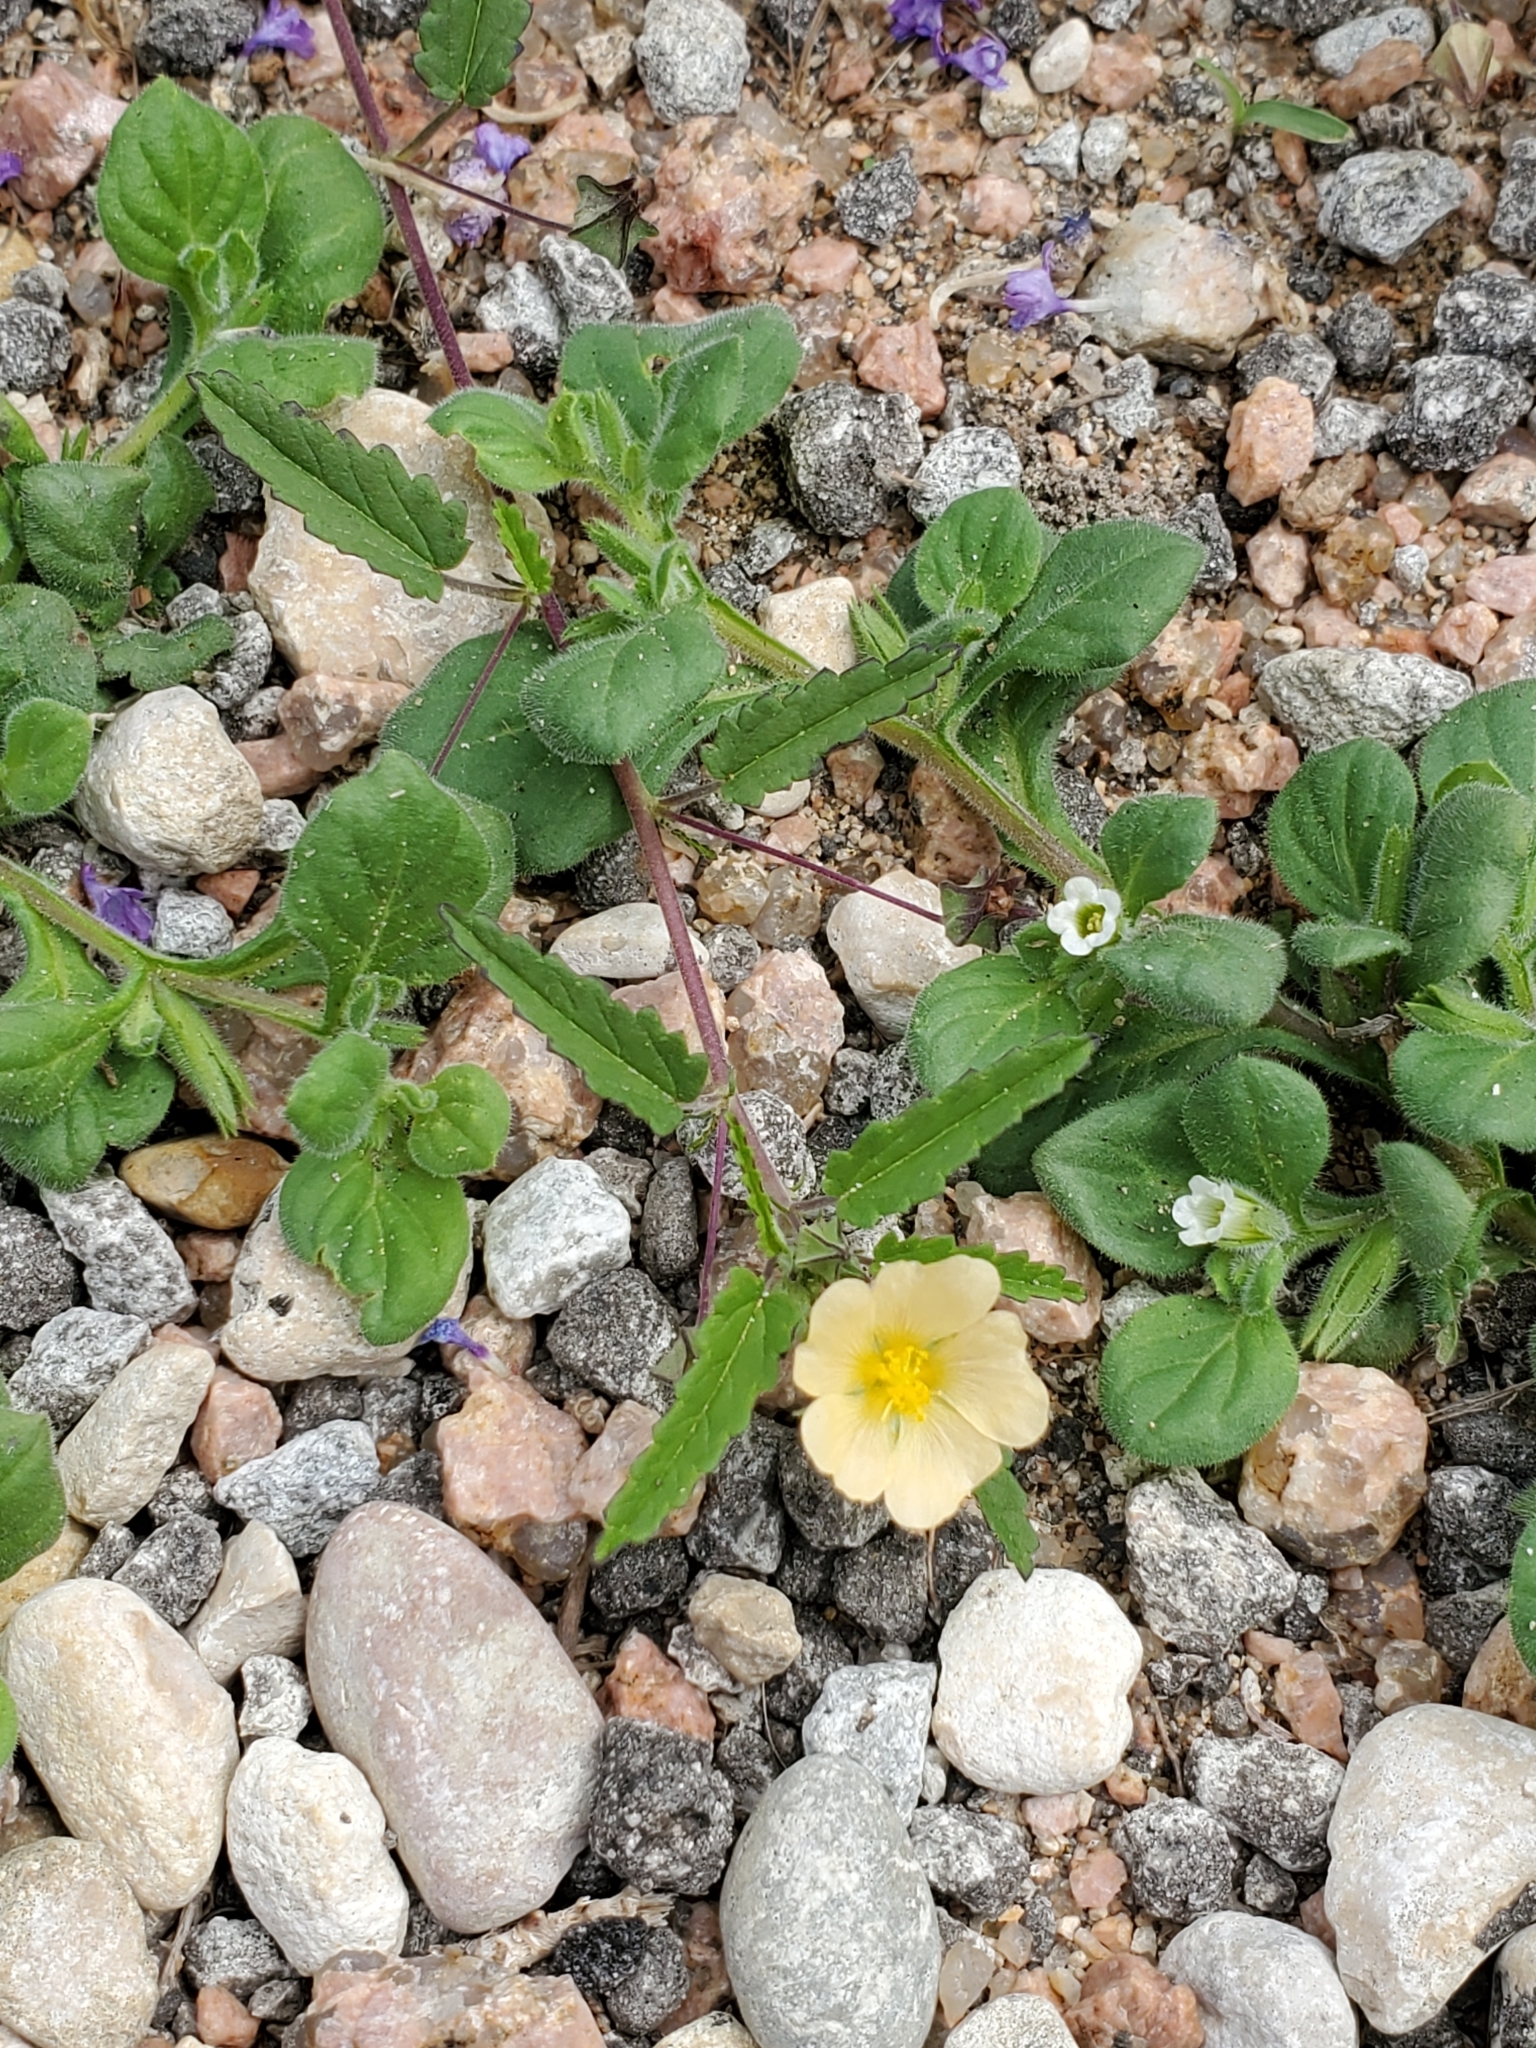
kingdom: Plantae
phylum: Tracheophyta
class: Magnoliopsida
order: Malvales
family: Malvaceae
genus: Sida
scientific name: Sida abutilifolia
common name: Spreading fanpetals
